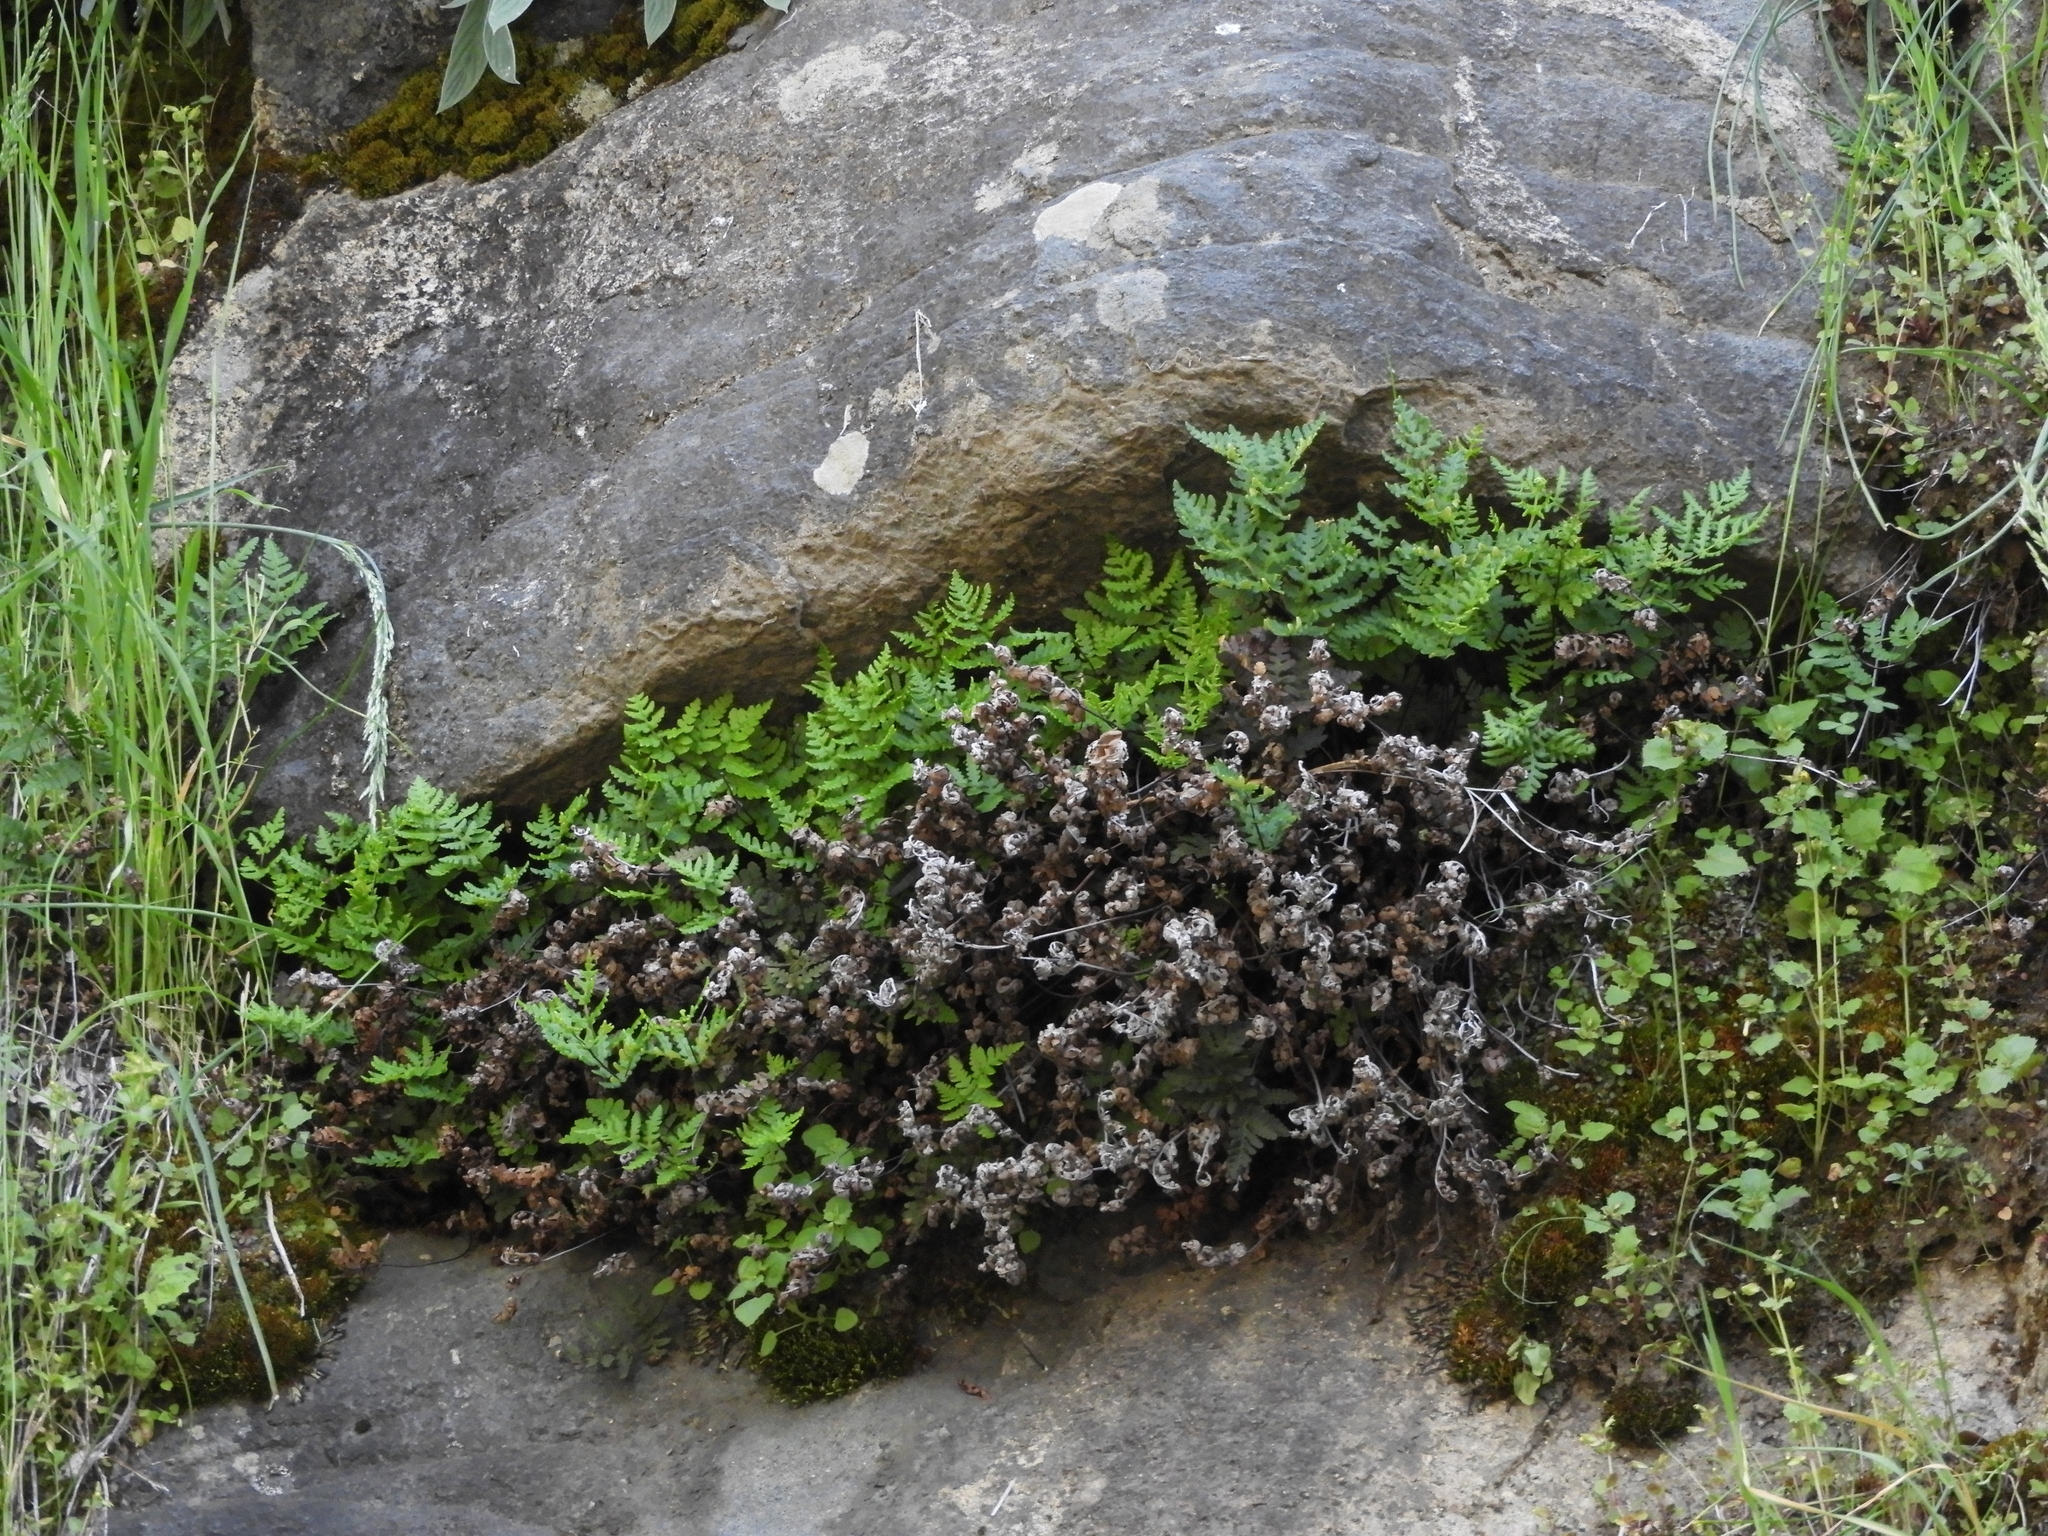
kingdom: Plantae
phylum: Tracheophyta
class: Polypodiopsida
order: Polypodiales
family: Pteridaceae
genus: Pentagramma
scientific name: Pentagramma triangularis
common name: Gold fern
